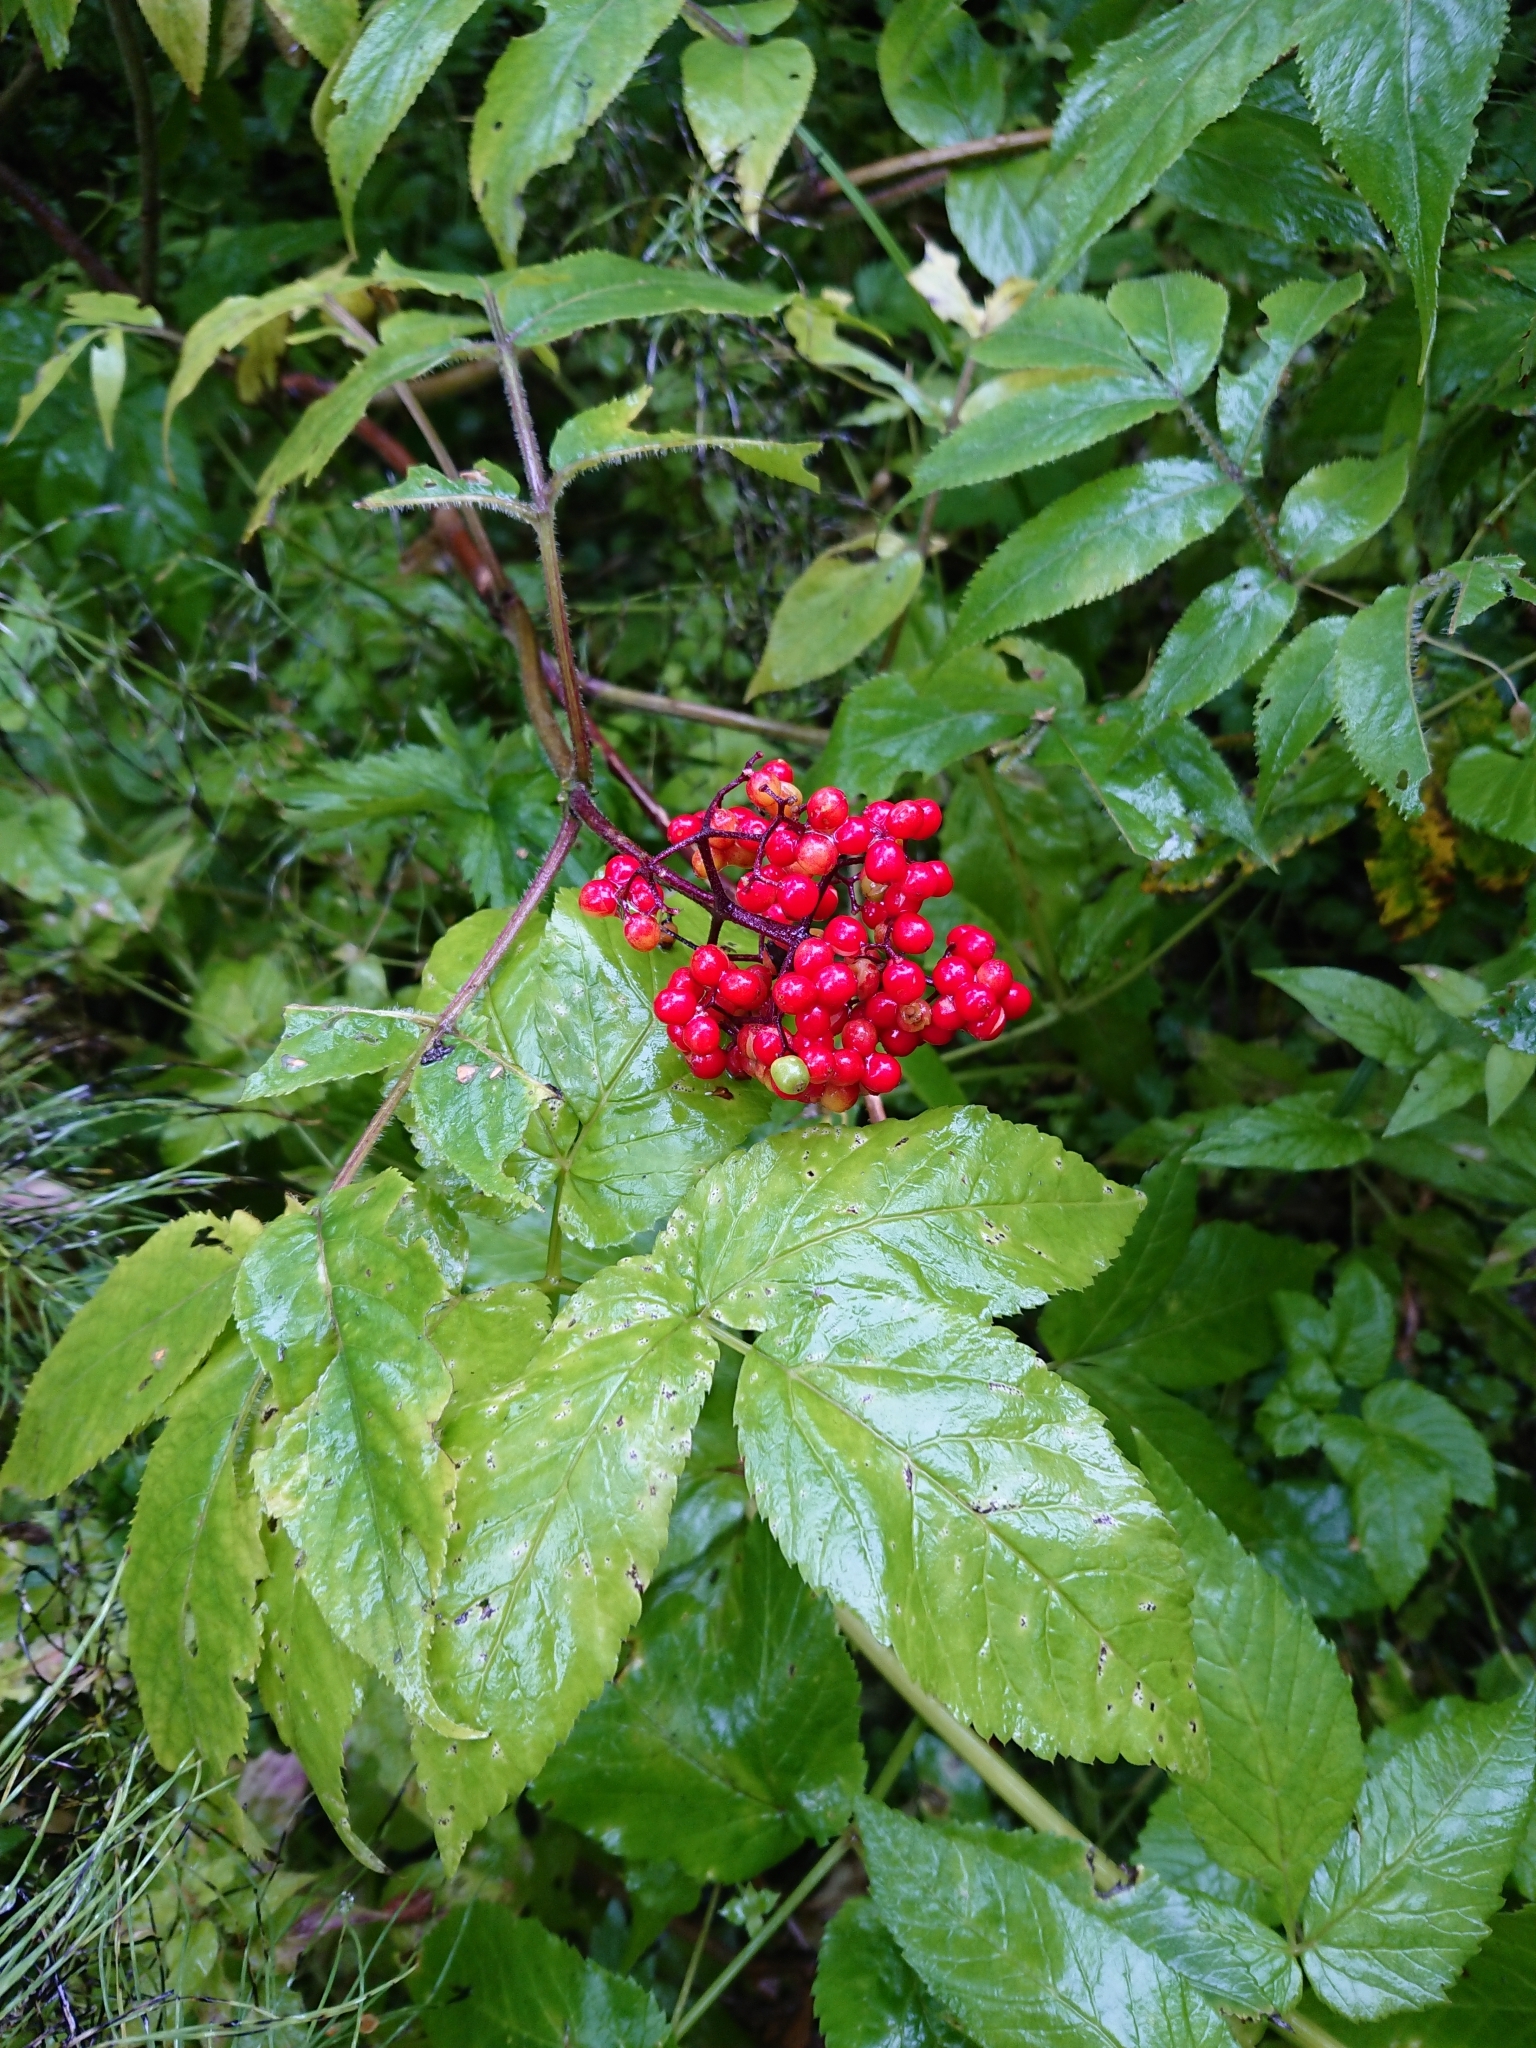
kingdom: Plantae
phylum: Tracheophyta
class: Magnoliopsida
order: Dipsacales
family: Viburnaceae
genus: Sambucus
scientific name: Sambucus racemosa
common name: Red-berried elder
